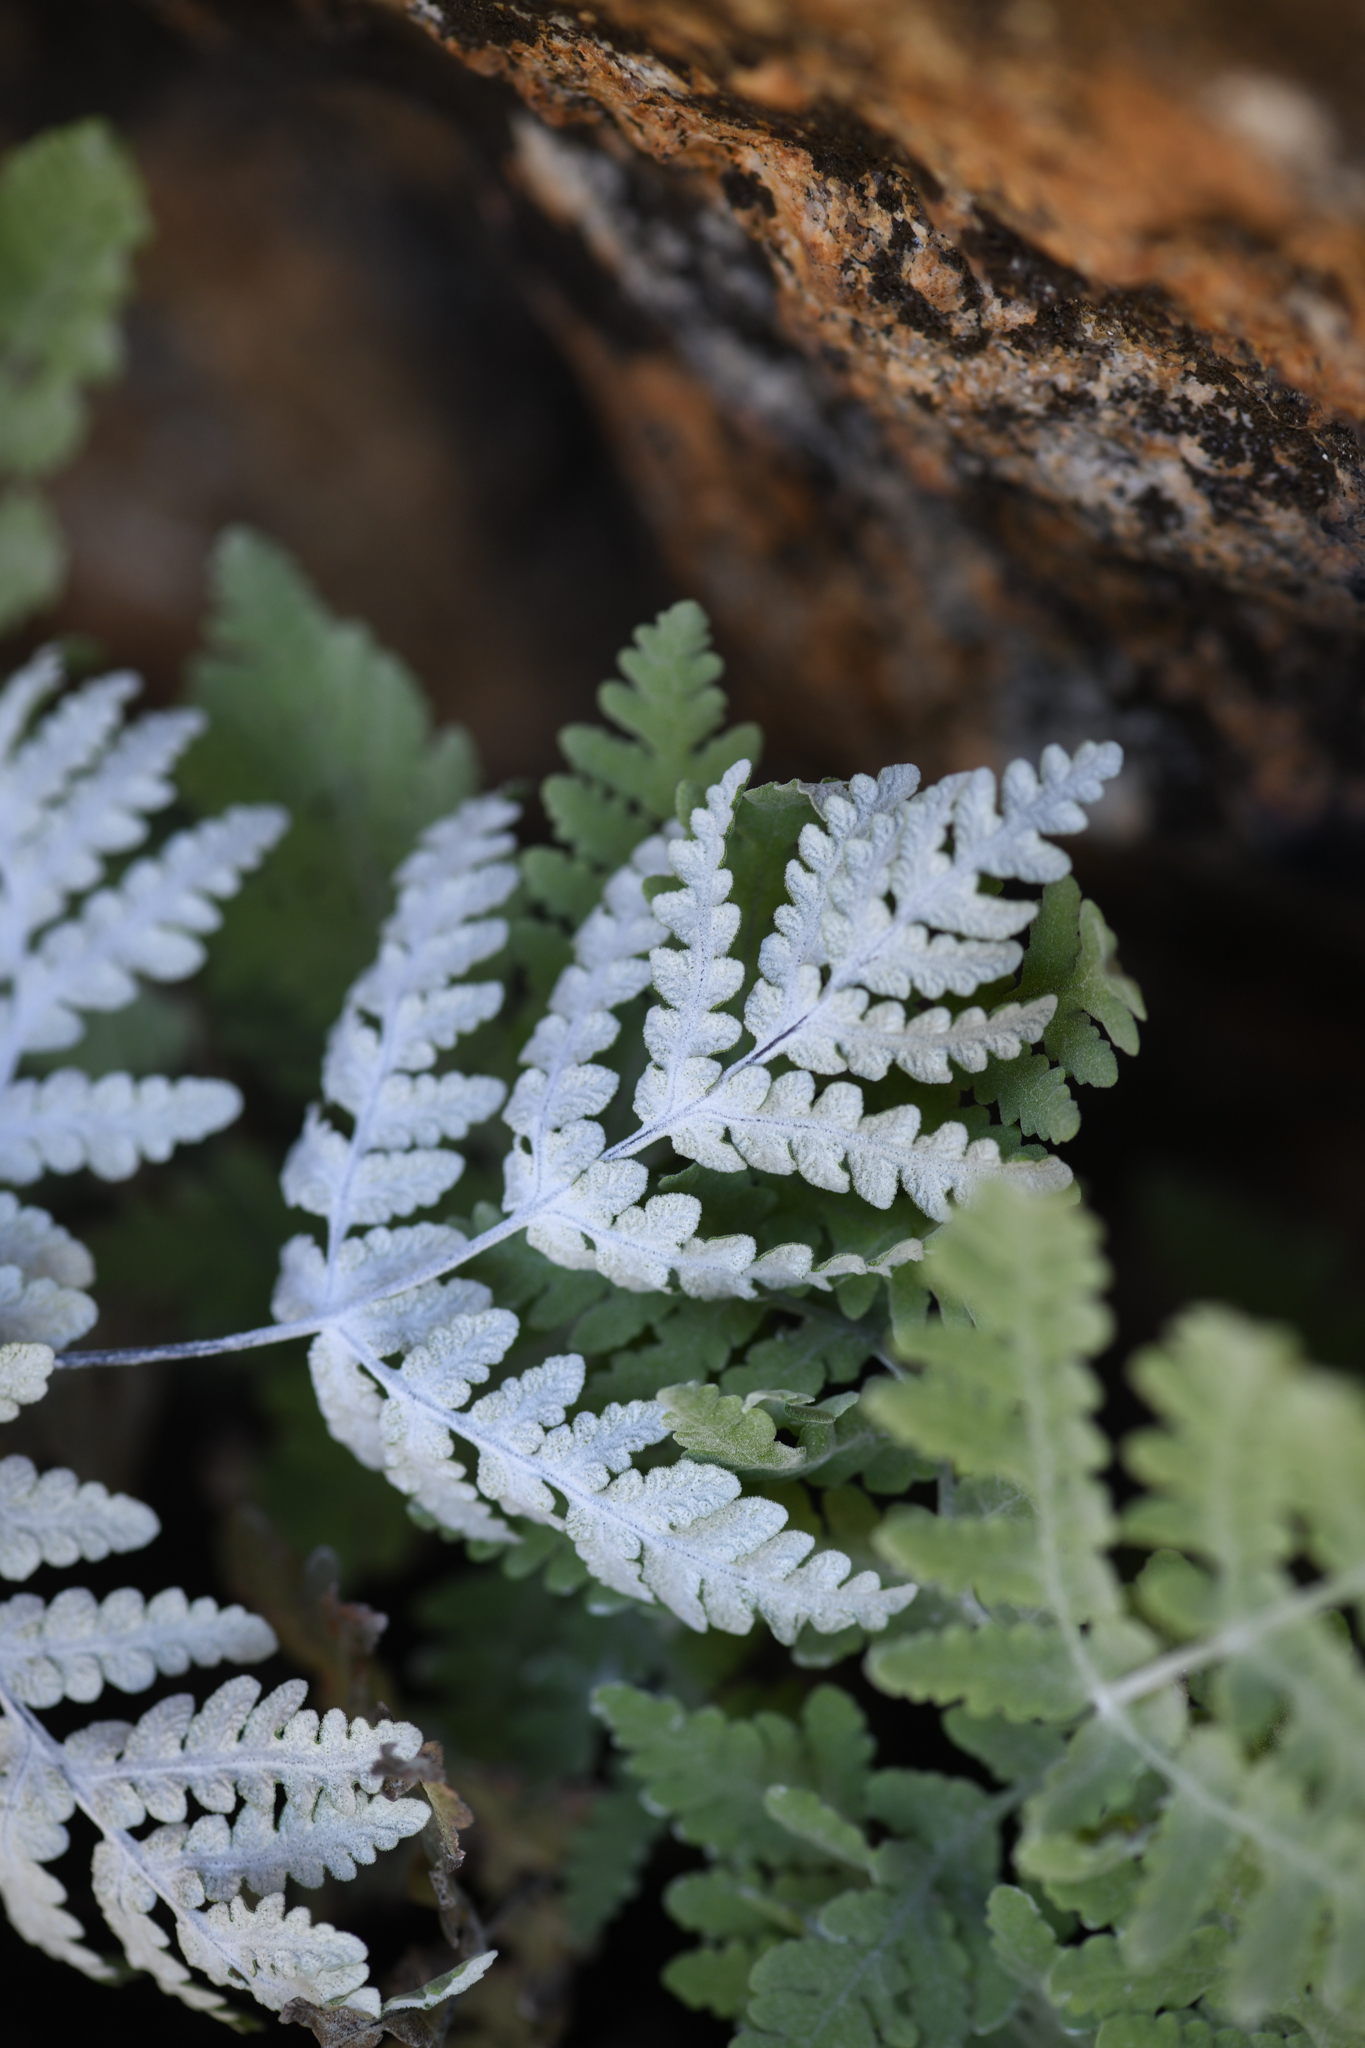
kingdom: Plantae
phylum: Tracheophyta
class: Polypodiopsida
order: Polypodiales
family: Pteridaceae
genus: Pentagramma
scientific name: Pentagramma pallida
